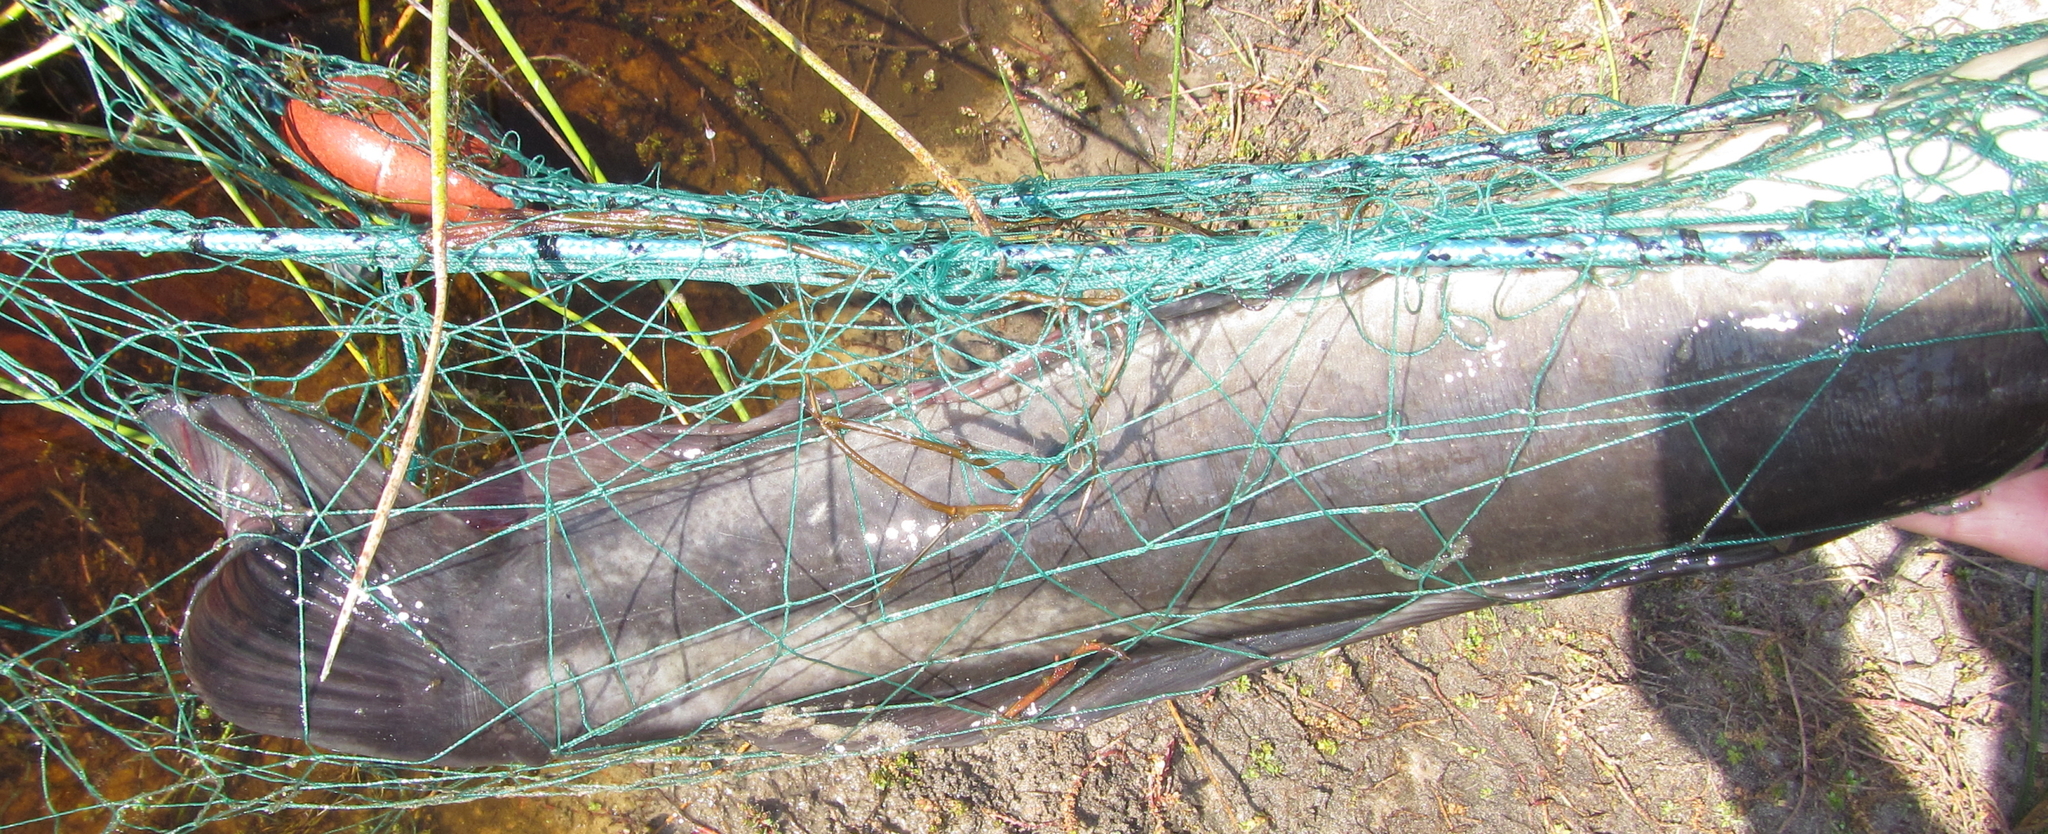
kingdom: Animalia
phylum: Chordata
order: Siluriformes
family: Clariidae
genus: Clarias
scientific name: Clarias ngamensis
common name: Blunt-toothed african catfish
